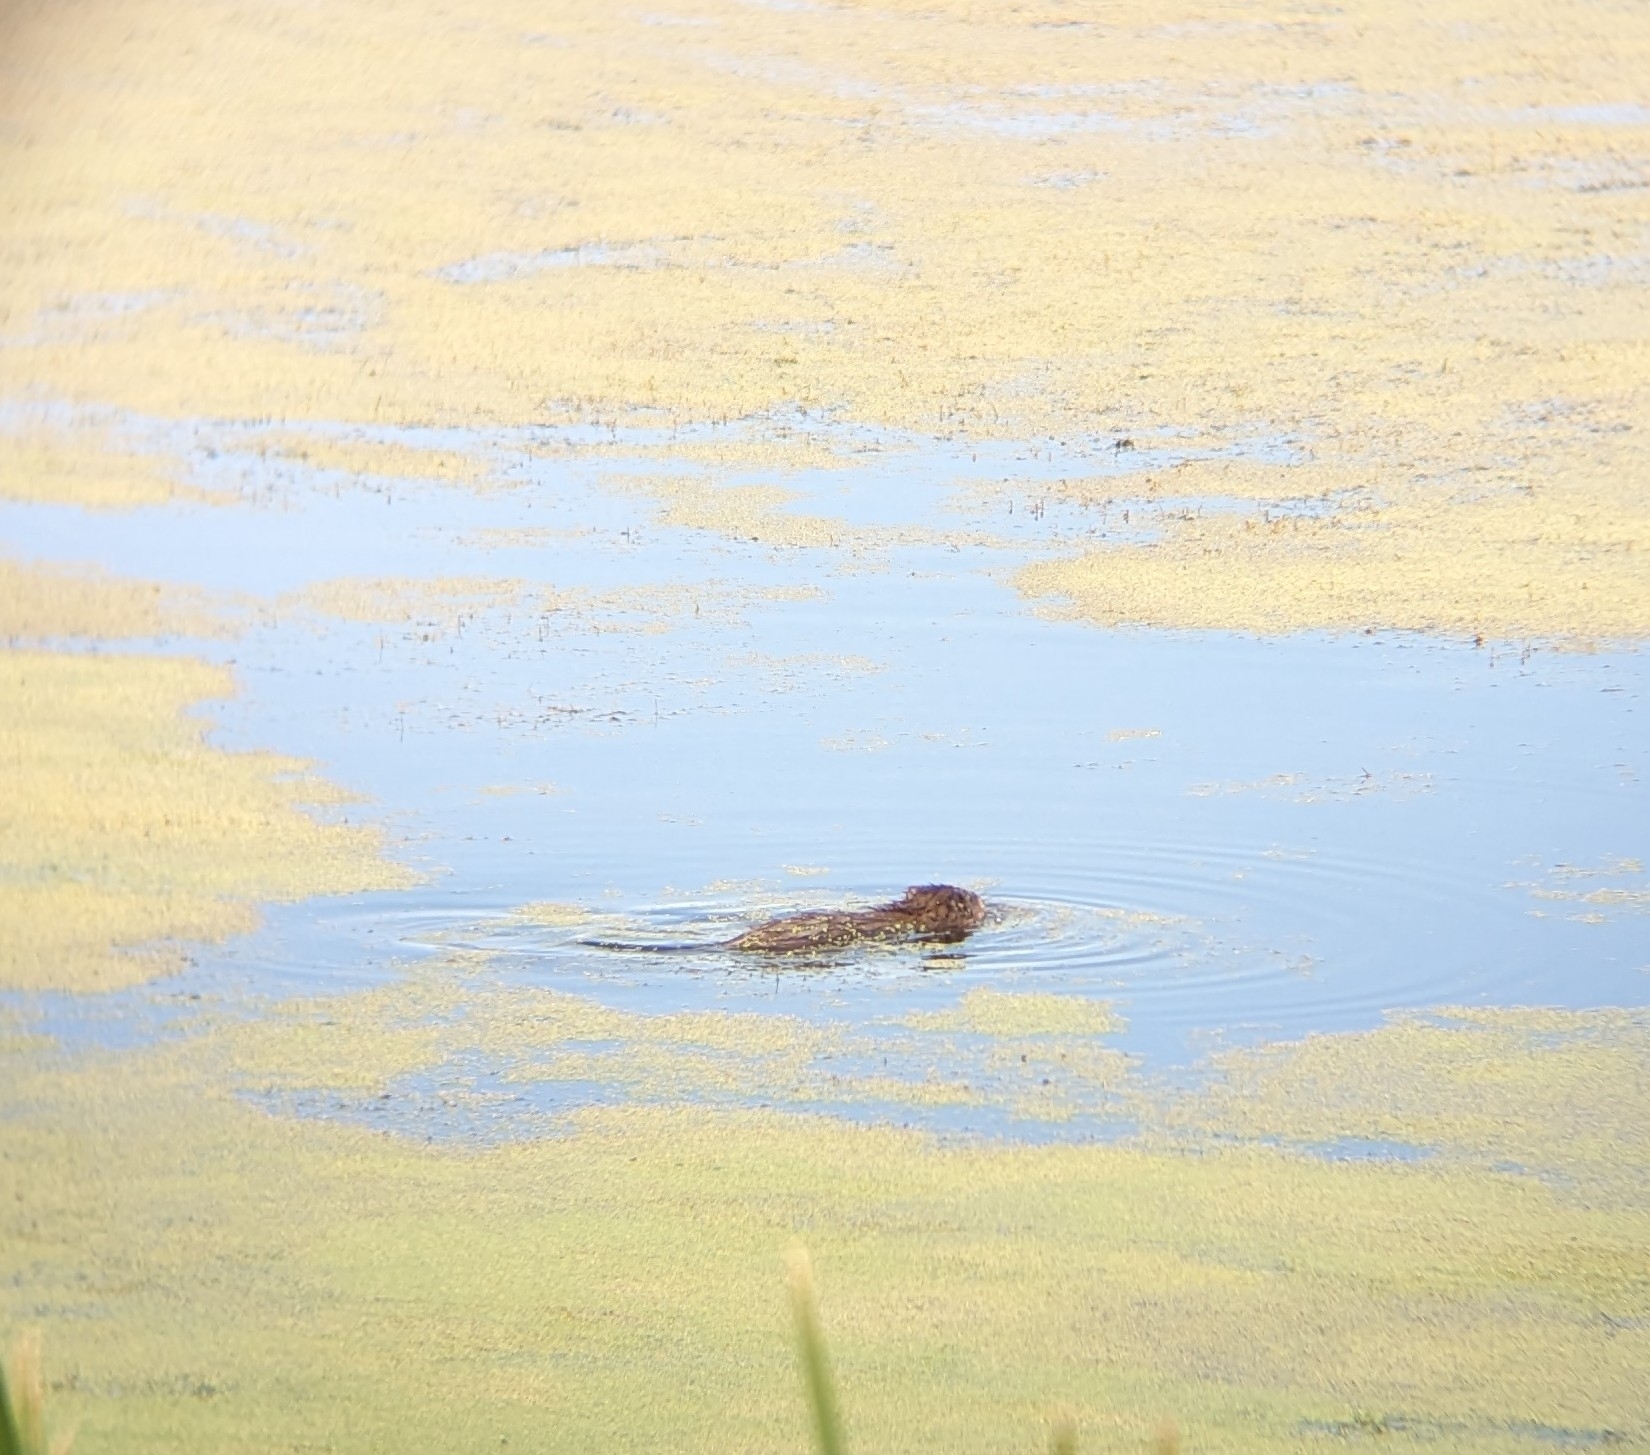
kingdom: Animalia
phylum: Chordata
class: Mammalia
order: Rodentia
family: Cricetidae
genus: Ondatra
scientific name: Ondatra zibethicus
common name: Muskrat
